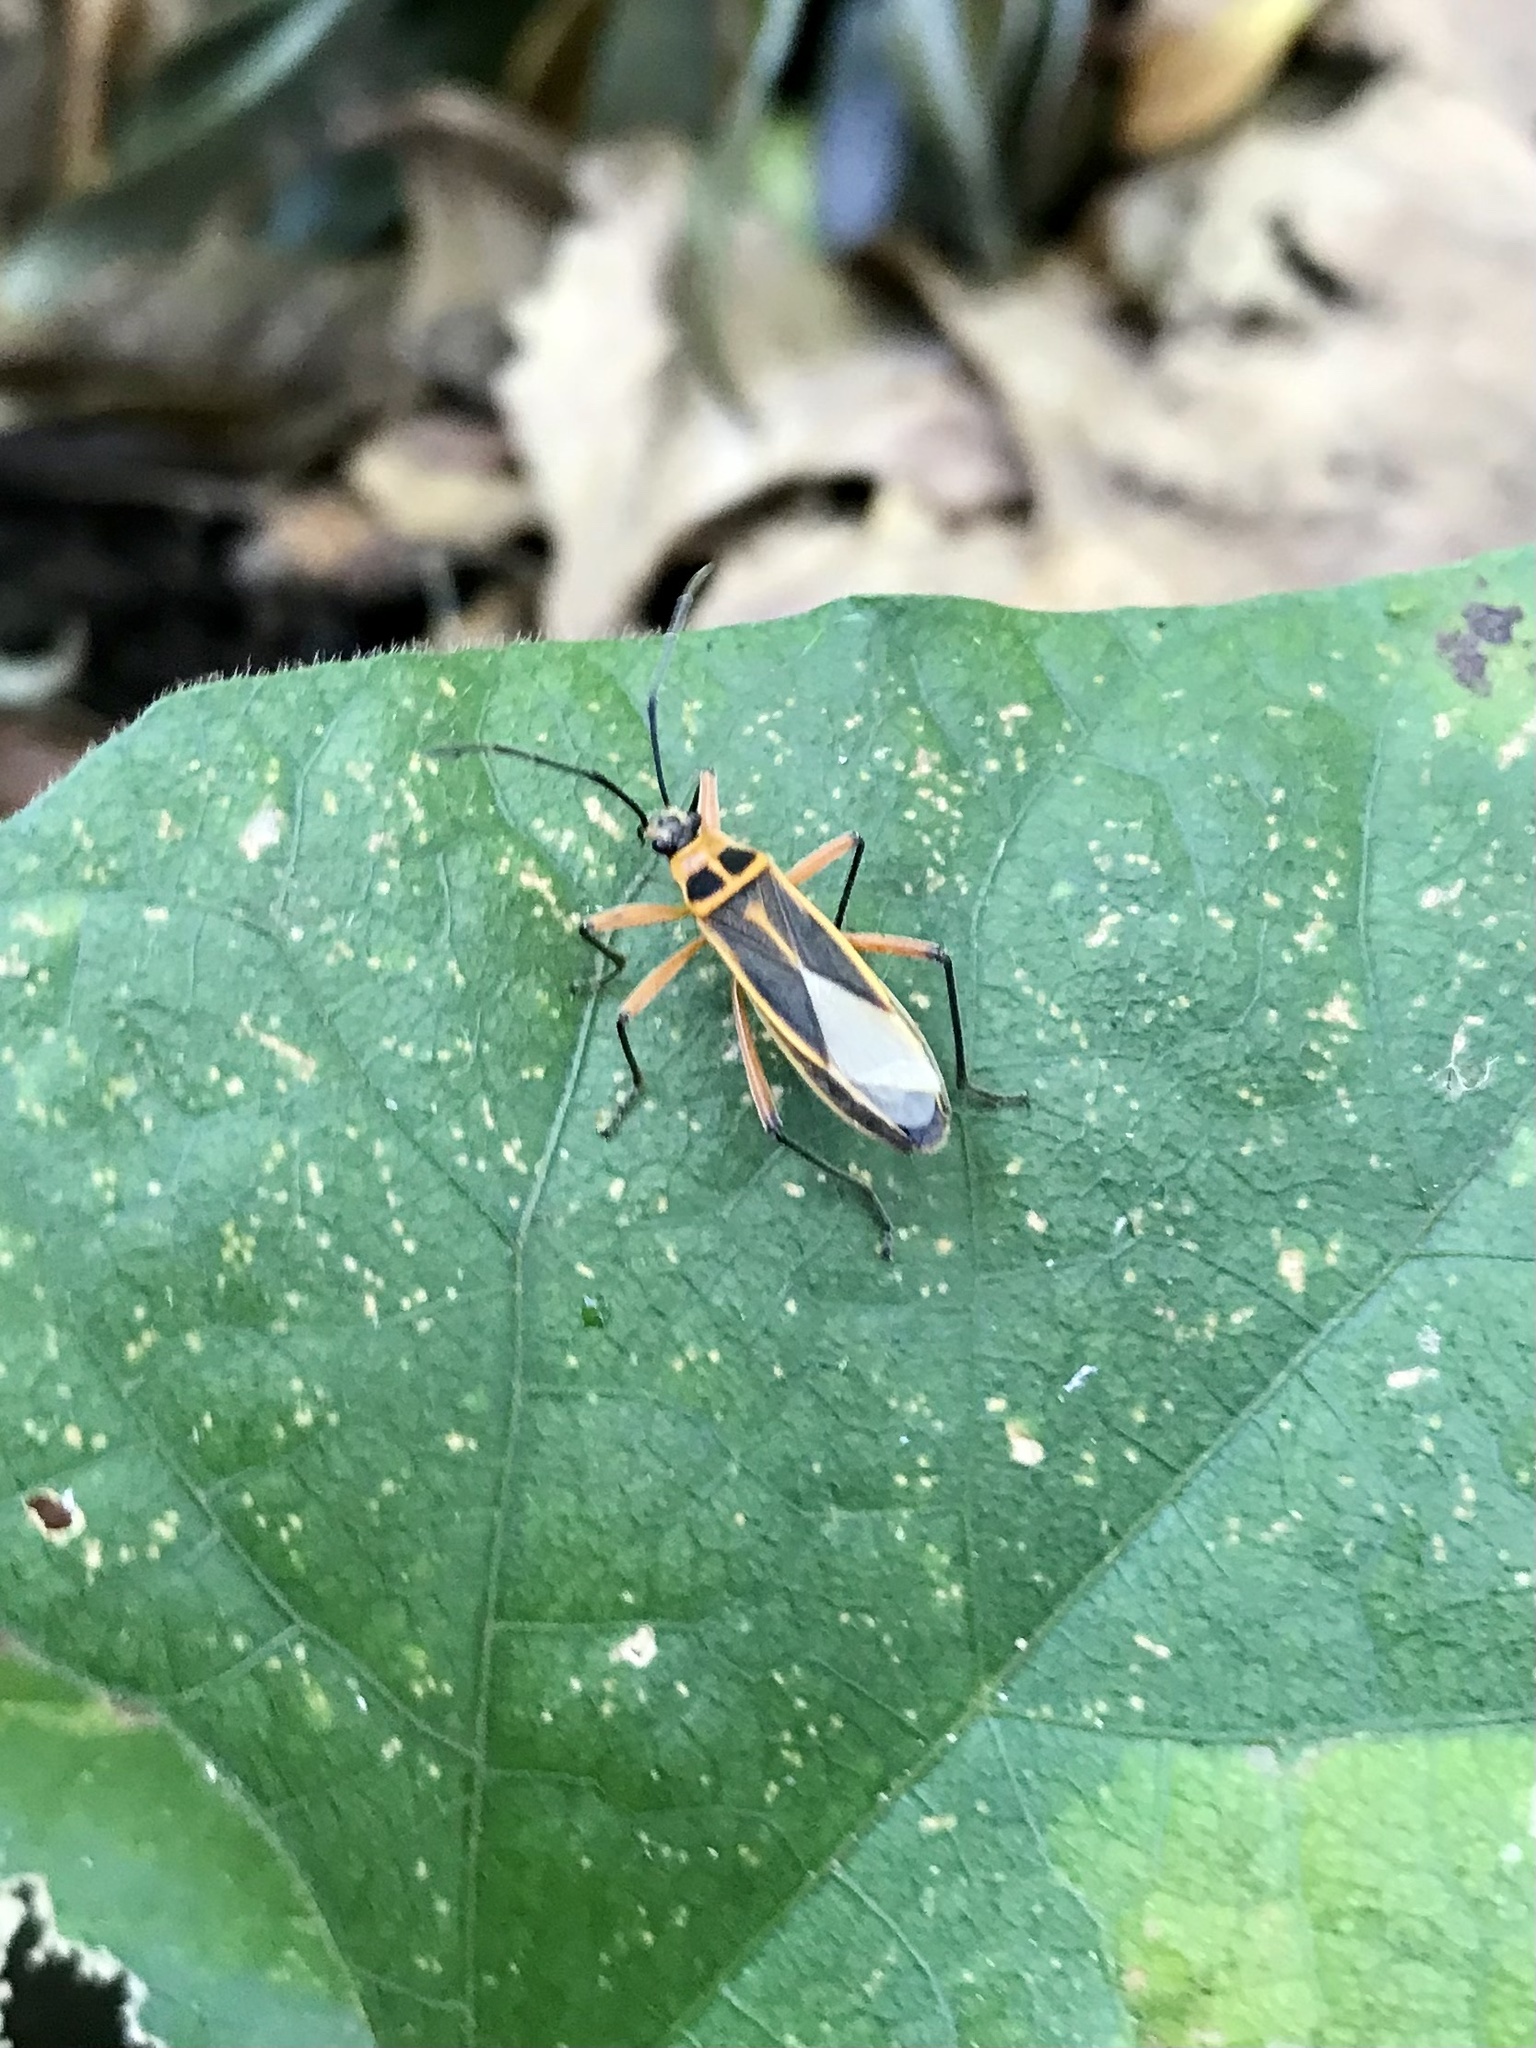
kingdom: Animalia
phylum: Arthropoda
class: Insecta
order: Hemiptera
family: Largidae
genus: Stenomacra
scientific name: Stenomacra marginella
